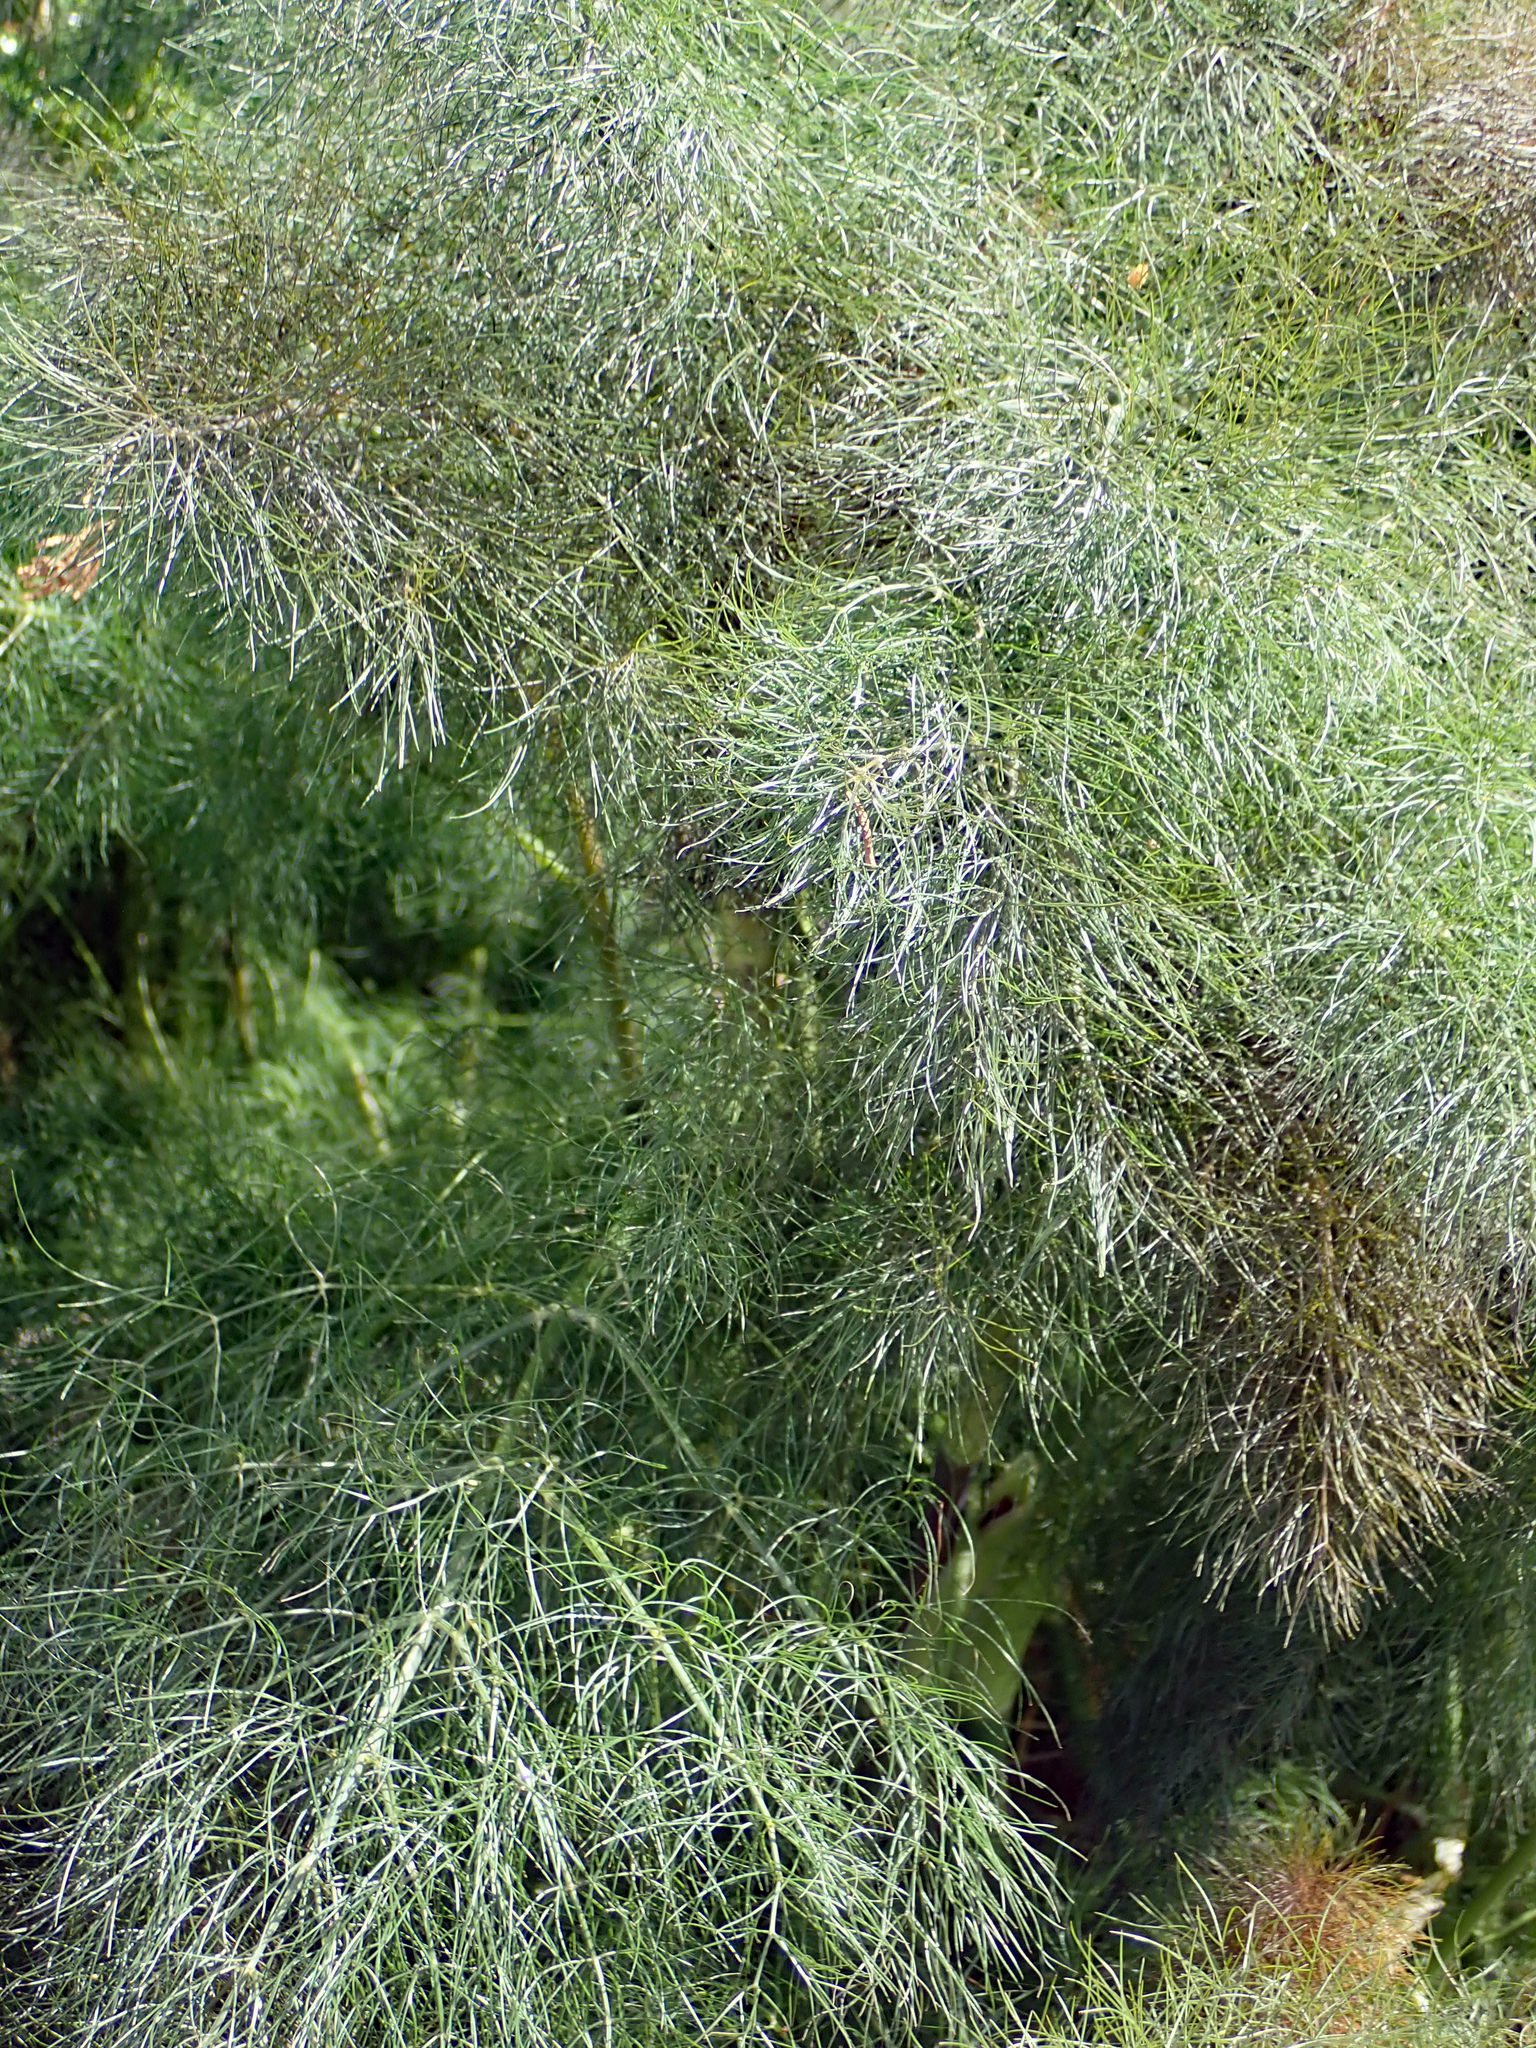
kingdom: Plantae
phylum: Tracheophyta
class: Magnoliopsida
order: Apiales
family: Apiaceae
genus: Foeniculum
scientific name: Foeniculum vulgare
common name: Fennel
